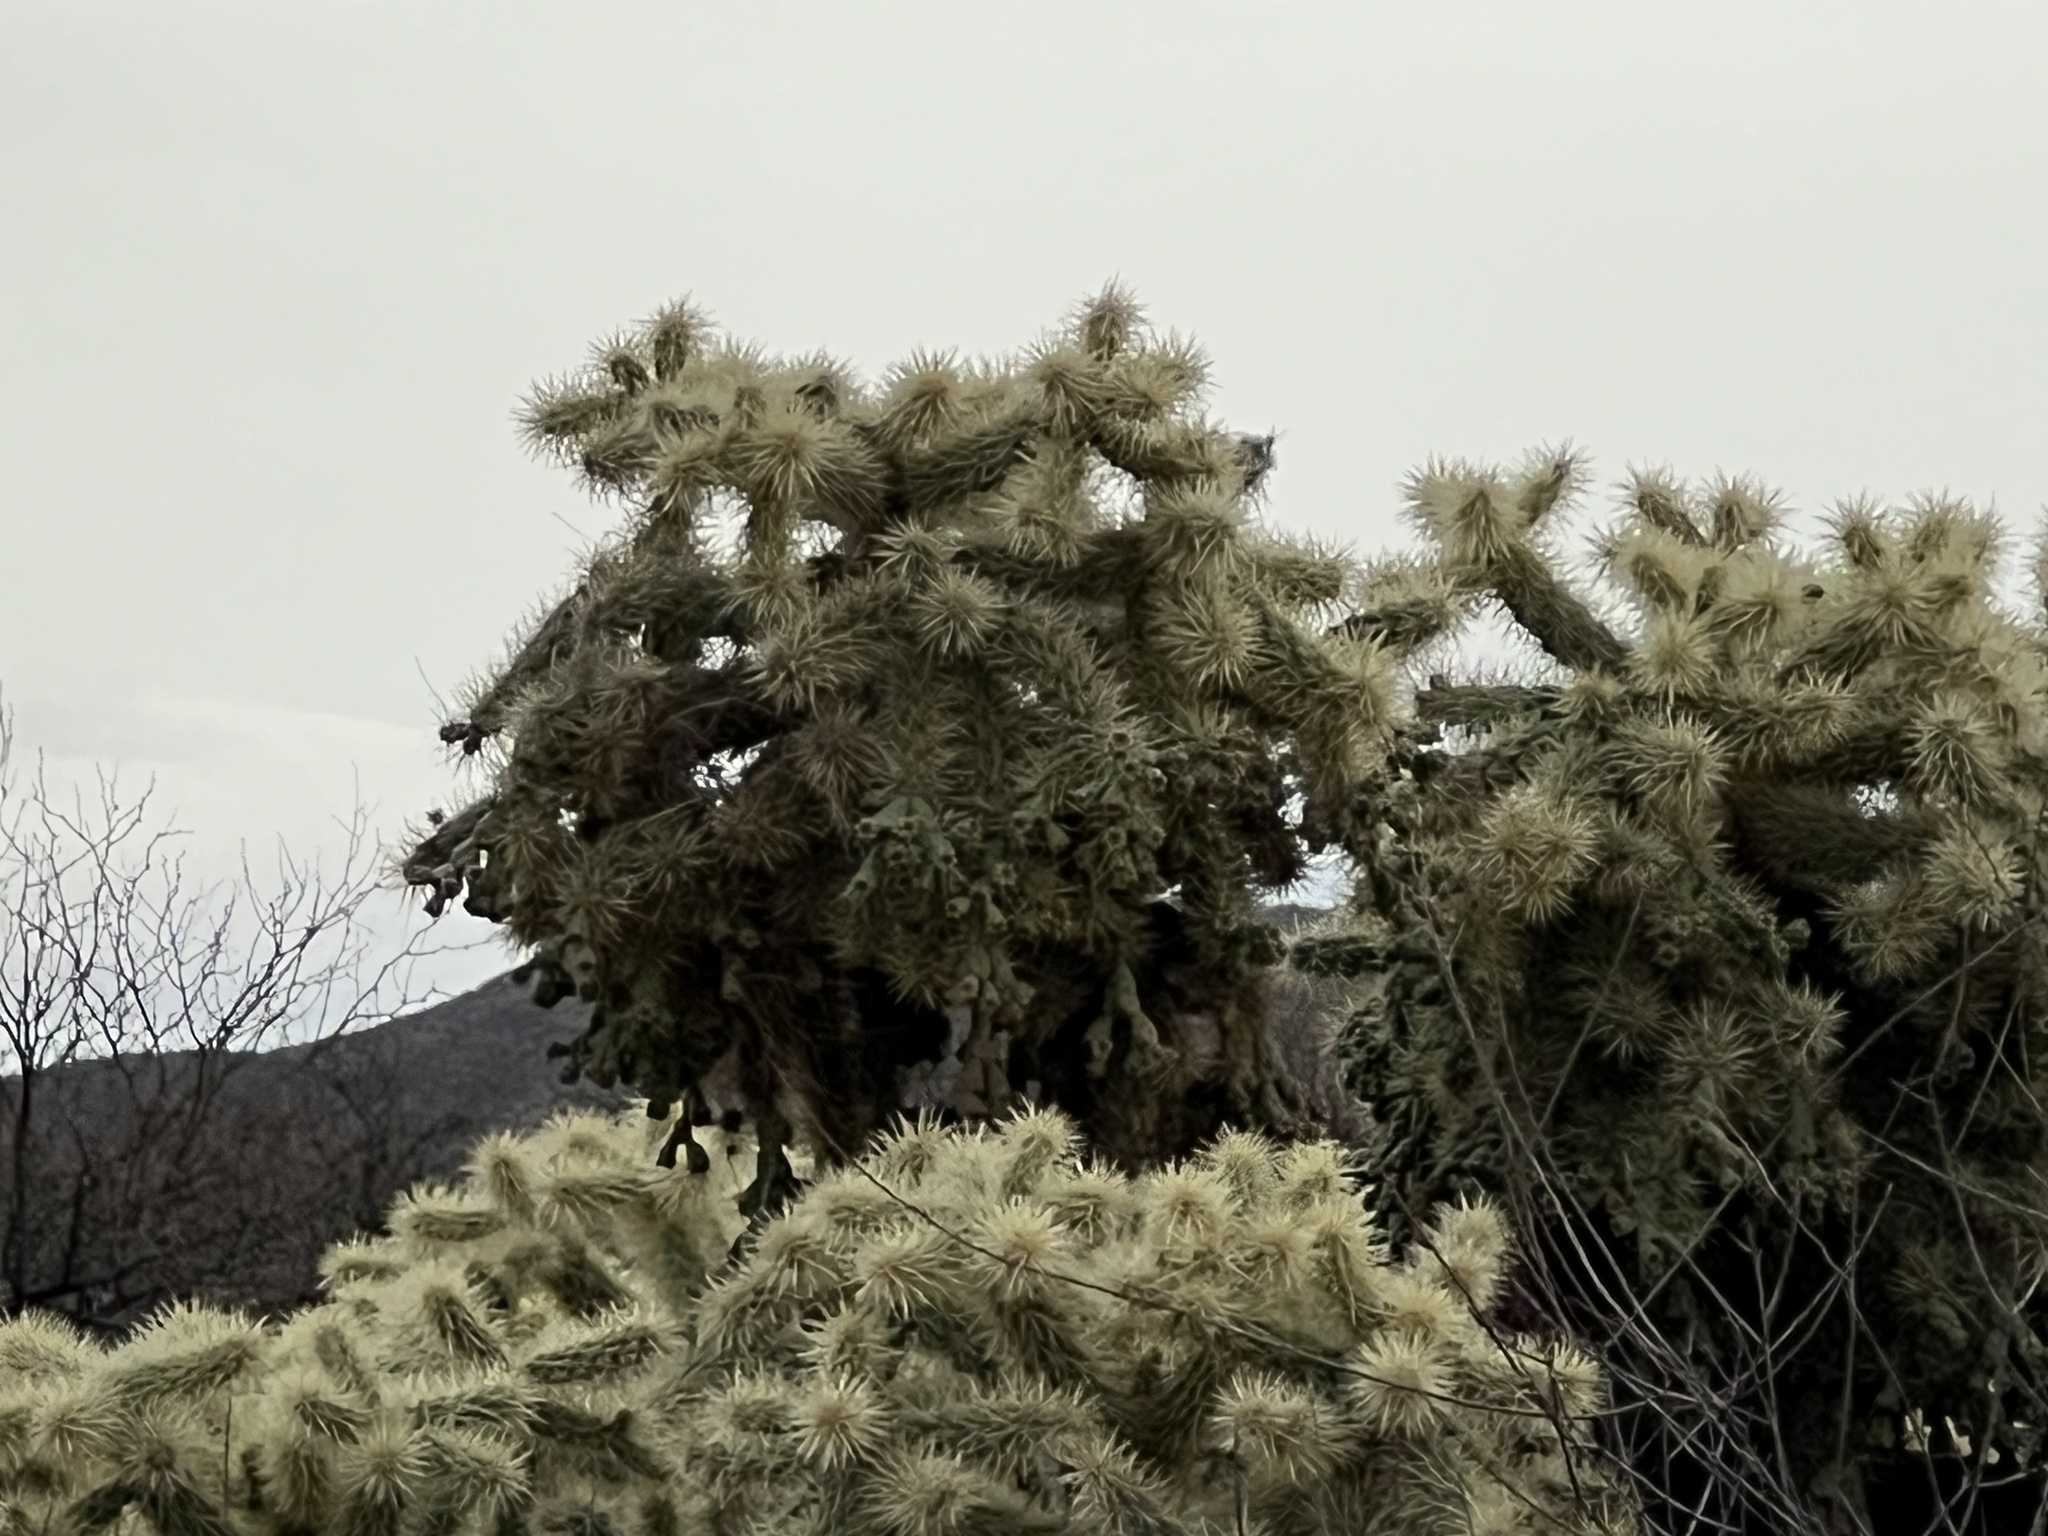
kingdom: Plantae
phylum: Tracheophyta
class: Magnoliopsida
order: Caryophyllales
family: Cactaceae
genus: Cylindropuntia
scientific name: Cylindropuntia fulgida
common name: Jumping cholla
